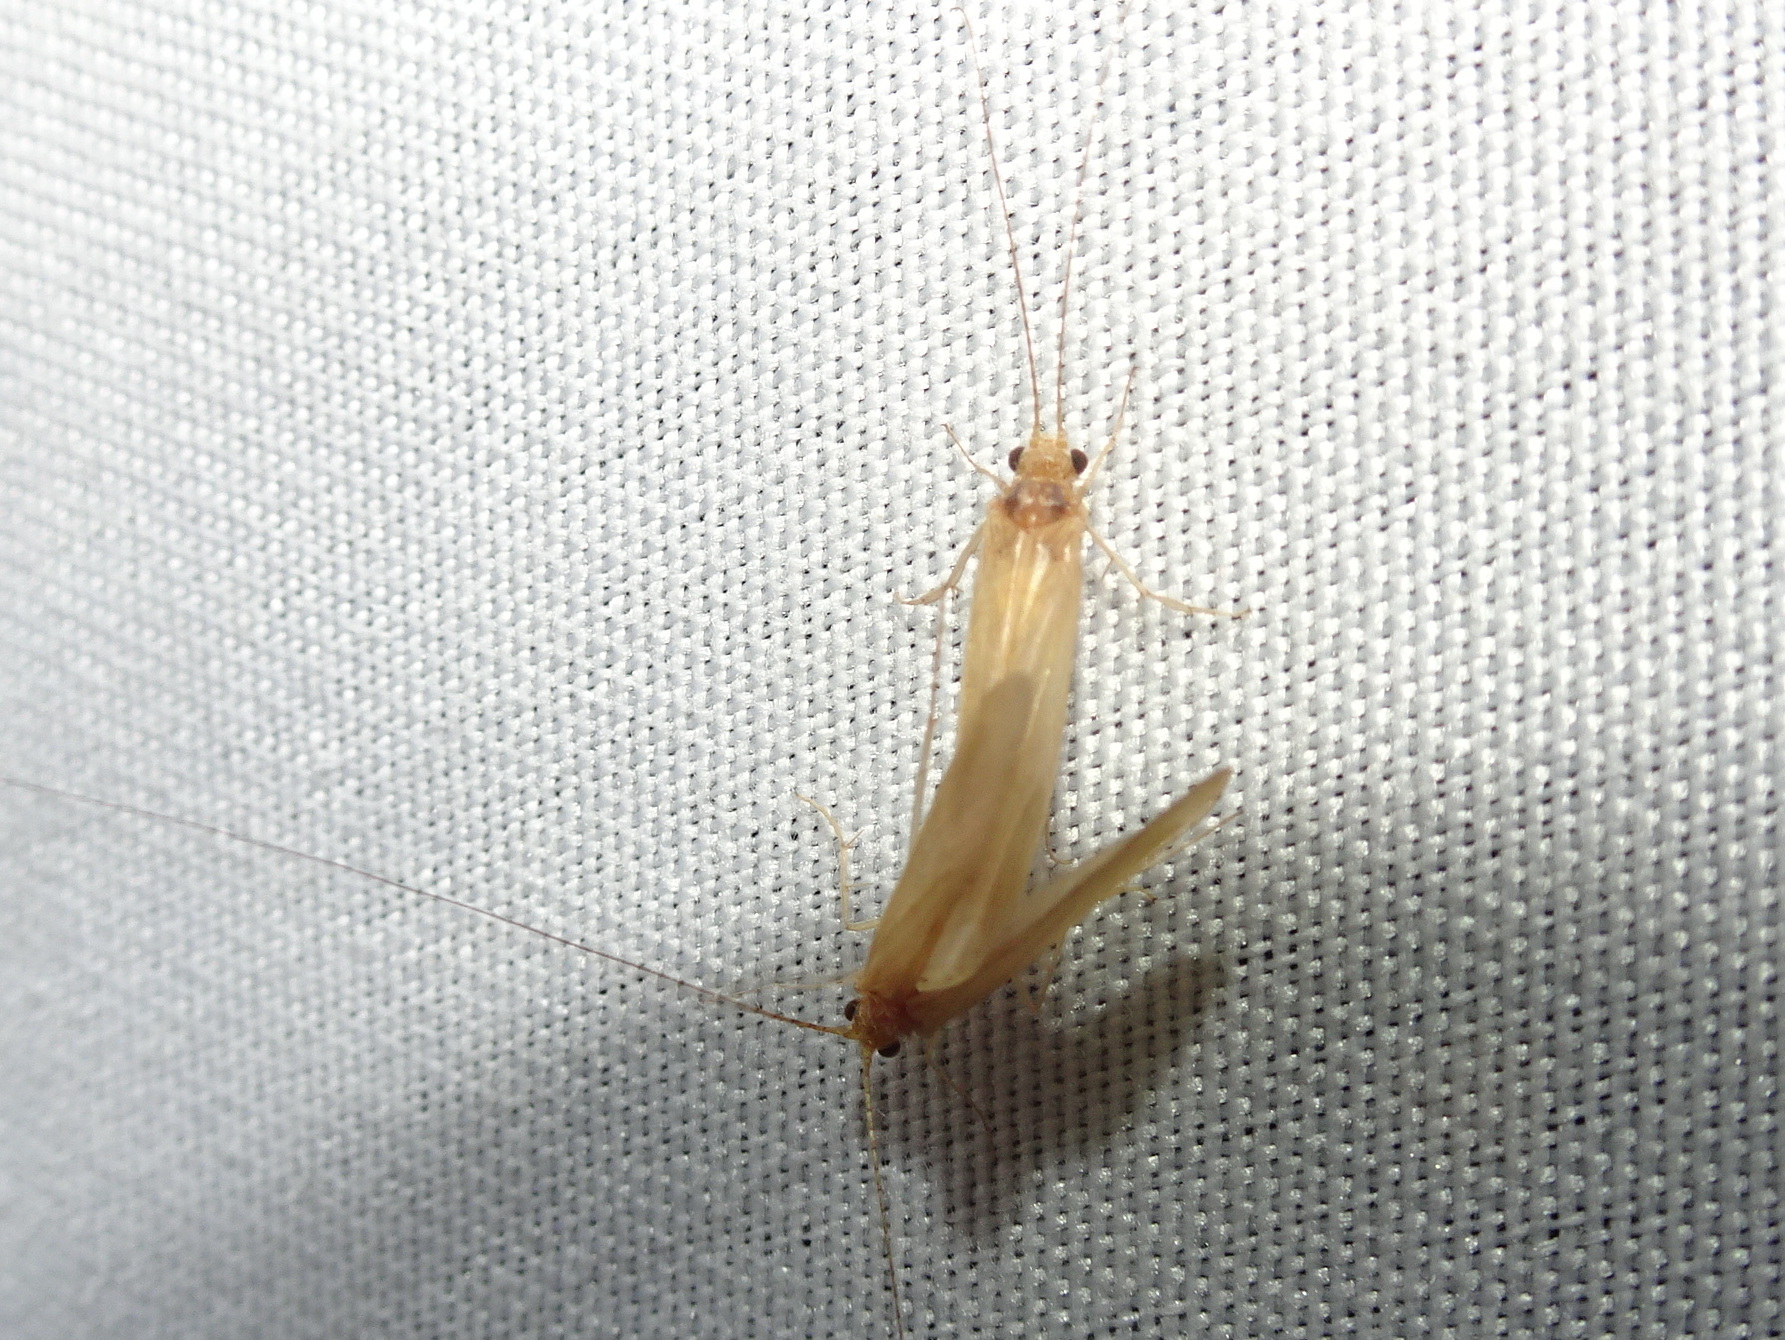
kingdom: Animalia
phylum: Arthropoda
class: Insecta
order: Trichoptera
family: Hydropsychidae
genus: Potamyia
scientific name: Potamyia flava
